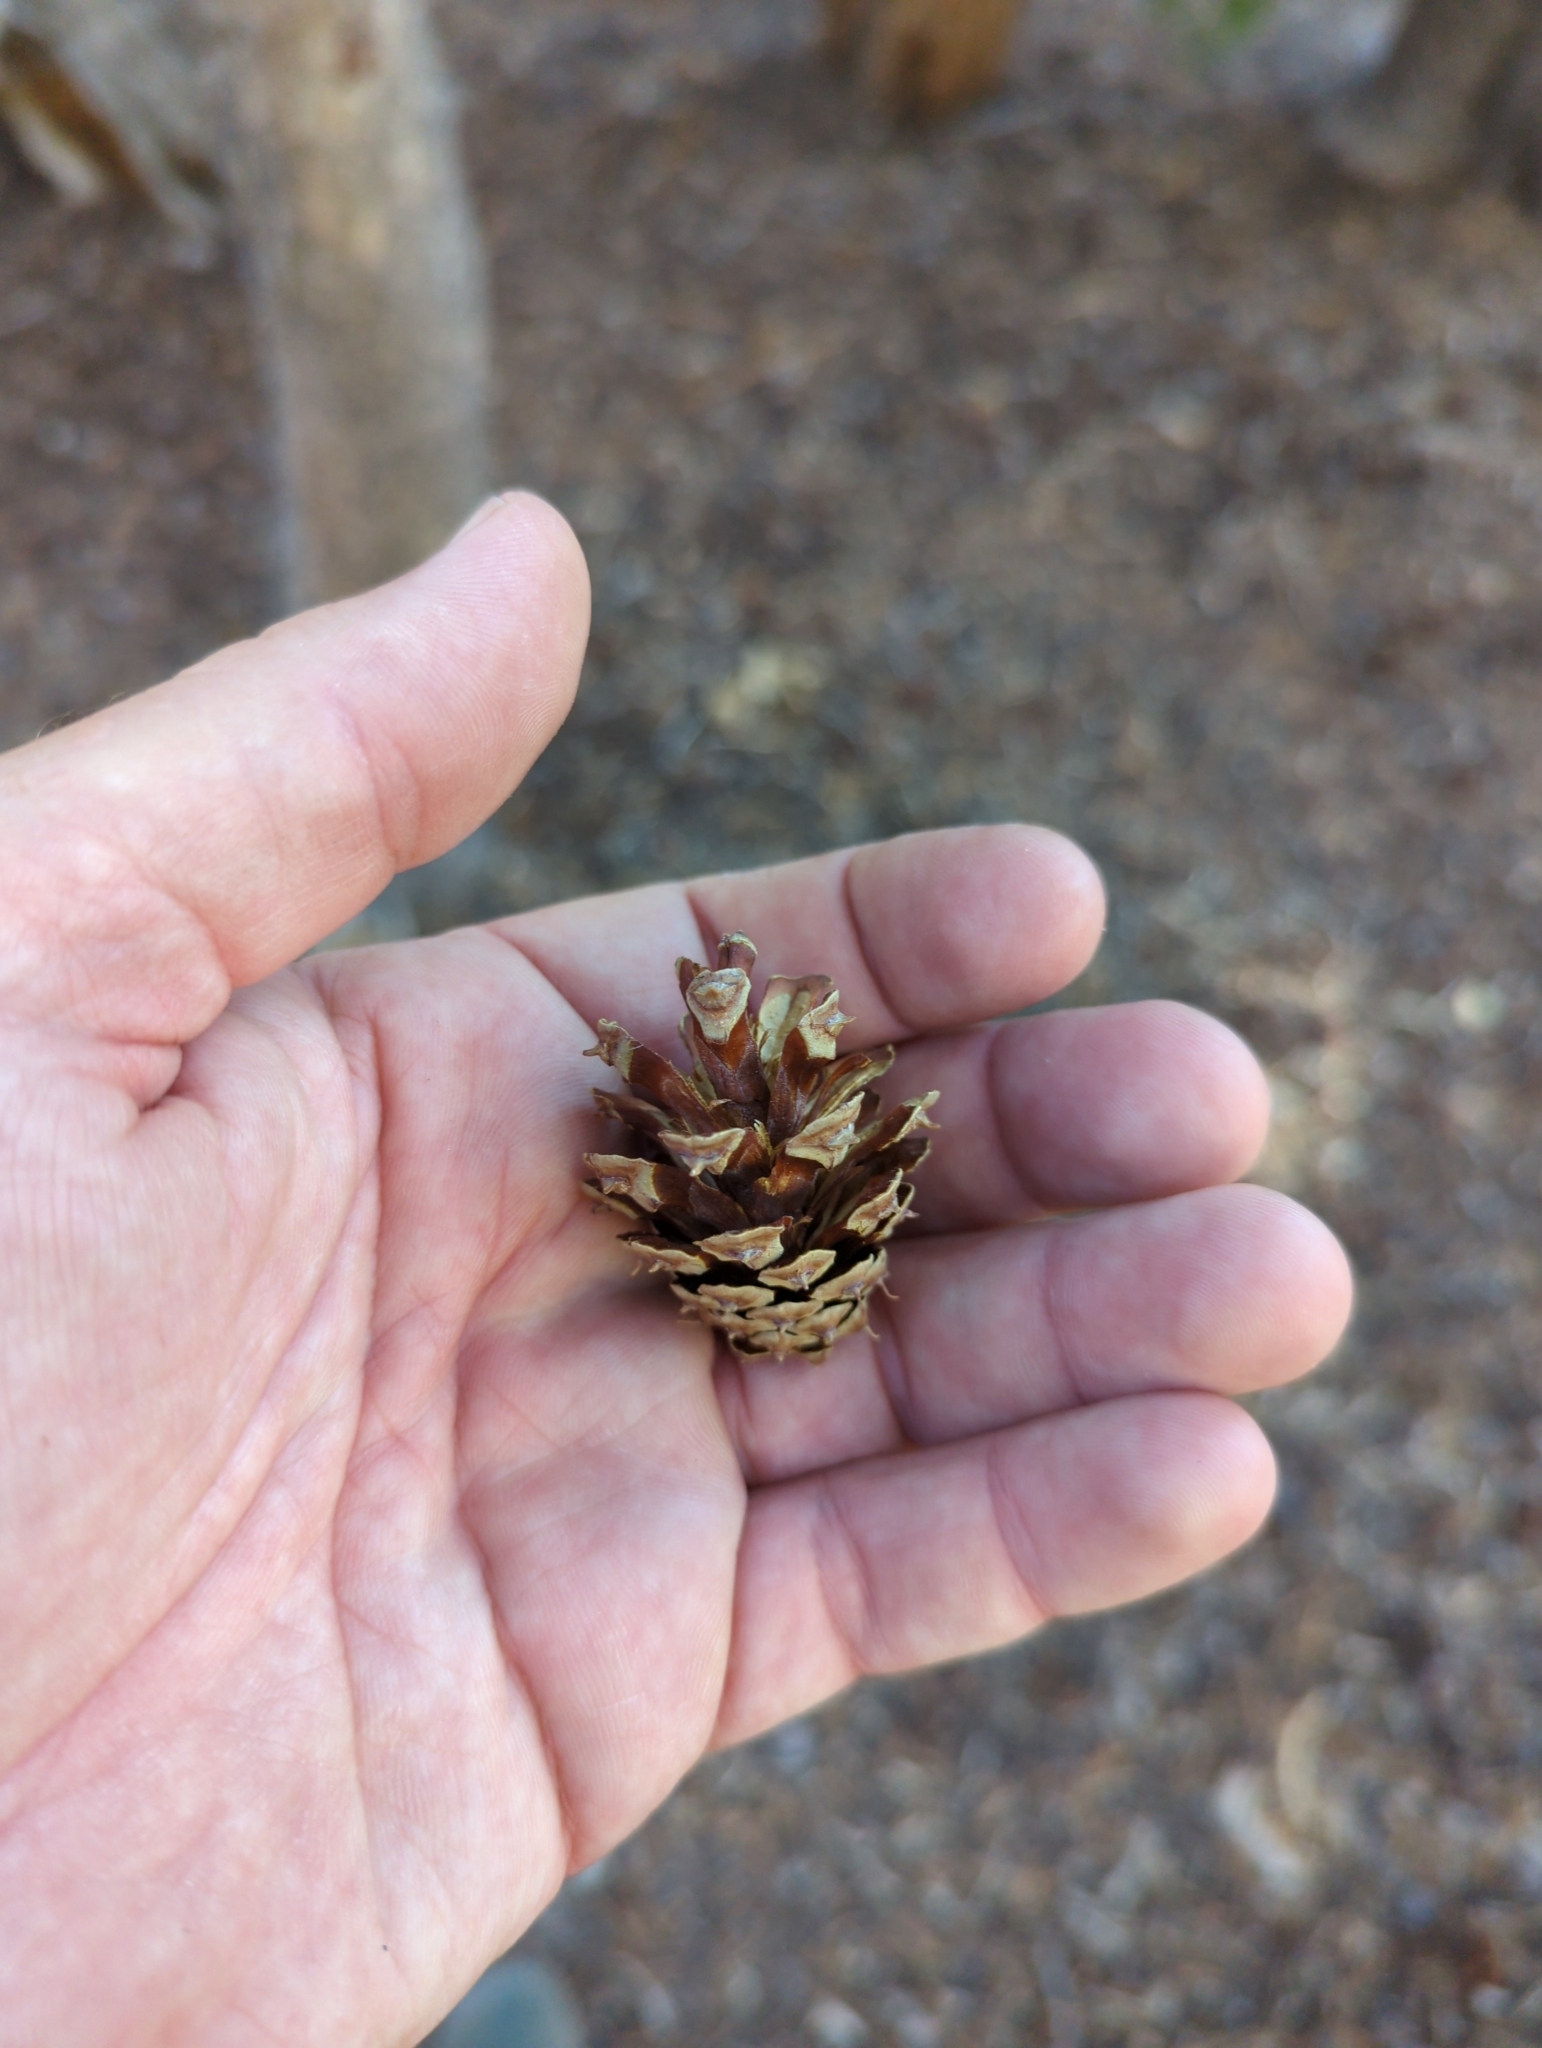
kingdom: Plantae
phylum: Tracheophyta
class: Pinopsida
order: Pinales
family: Pinaceae
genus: Pinus
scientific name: Pinus contorta
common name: Lodgepole pine
